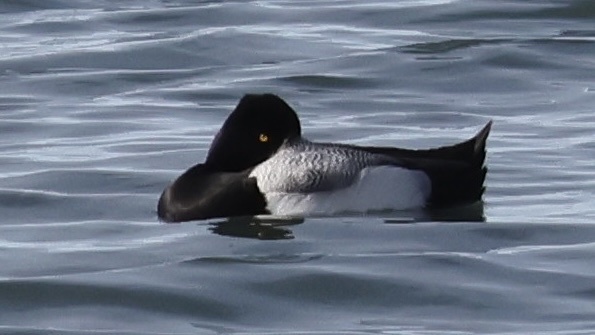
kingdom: Animalia
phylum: Chordata
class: Aves
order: Anseriformes
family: Anatidae
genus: Aythya
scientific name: Aythya affinis
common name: Lesser scaup
